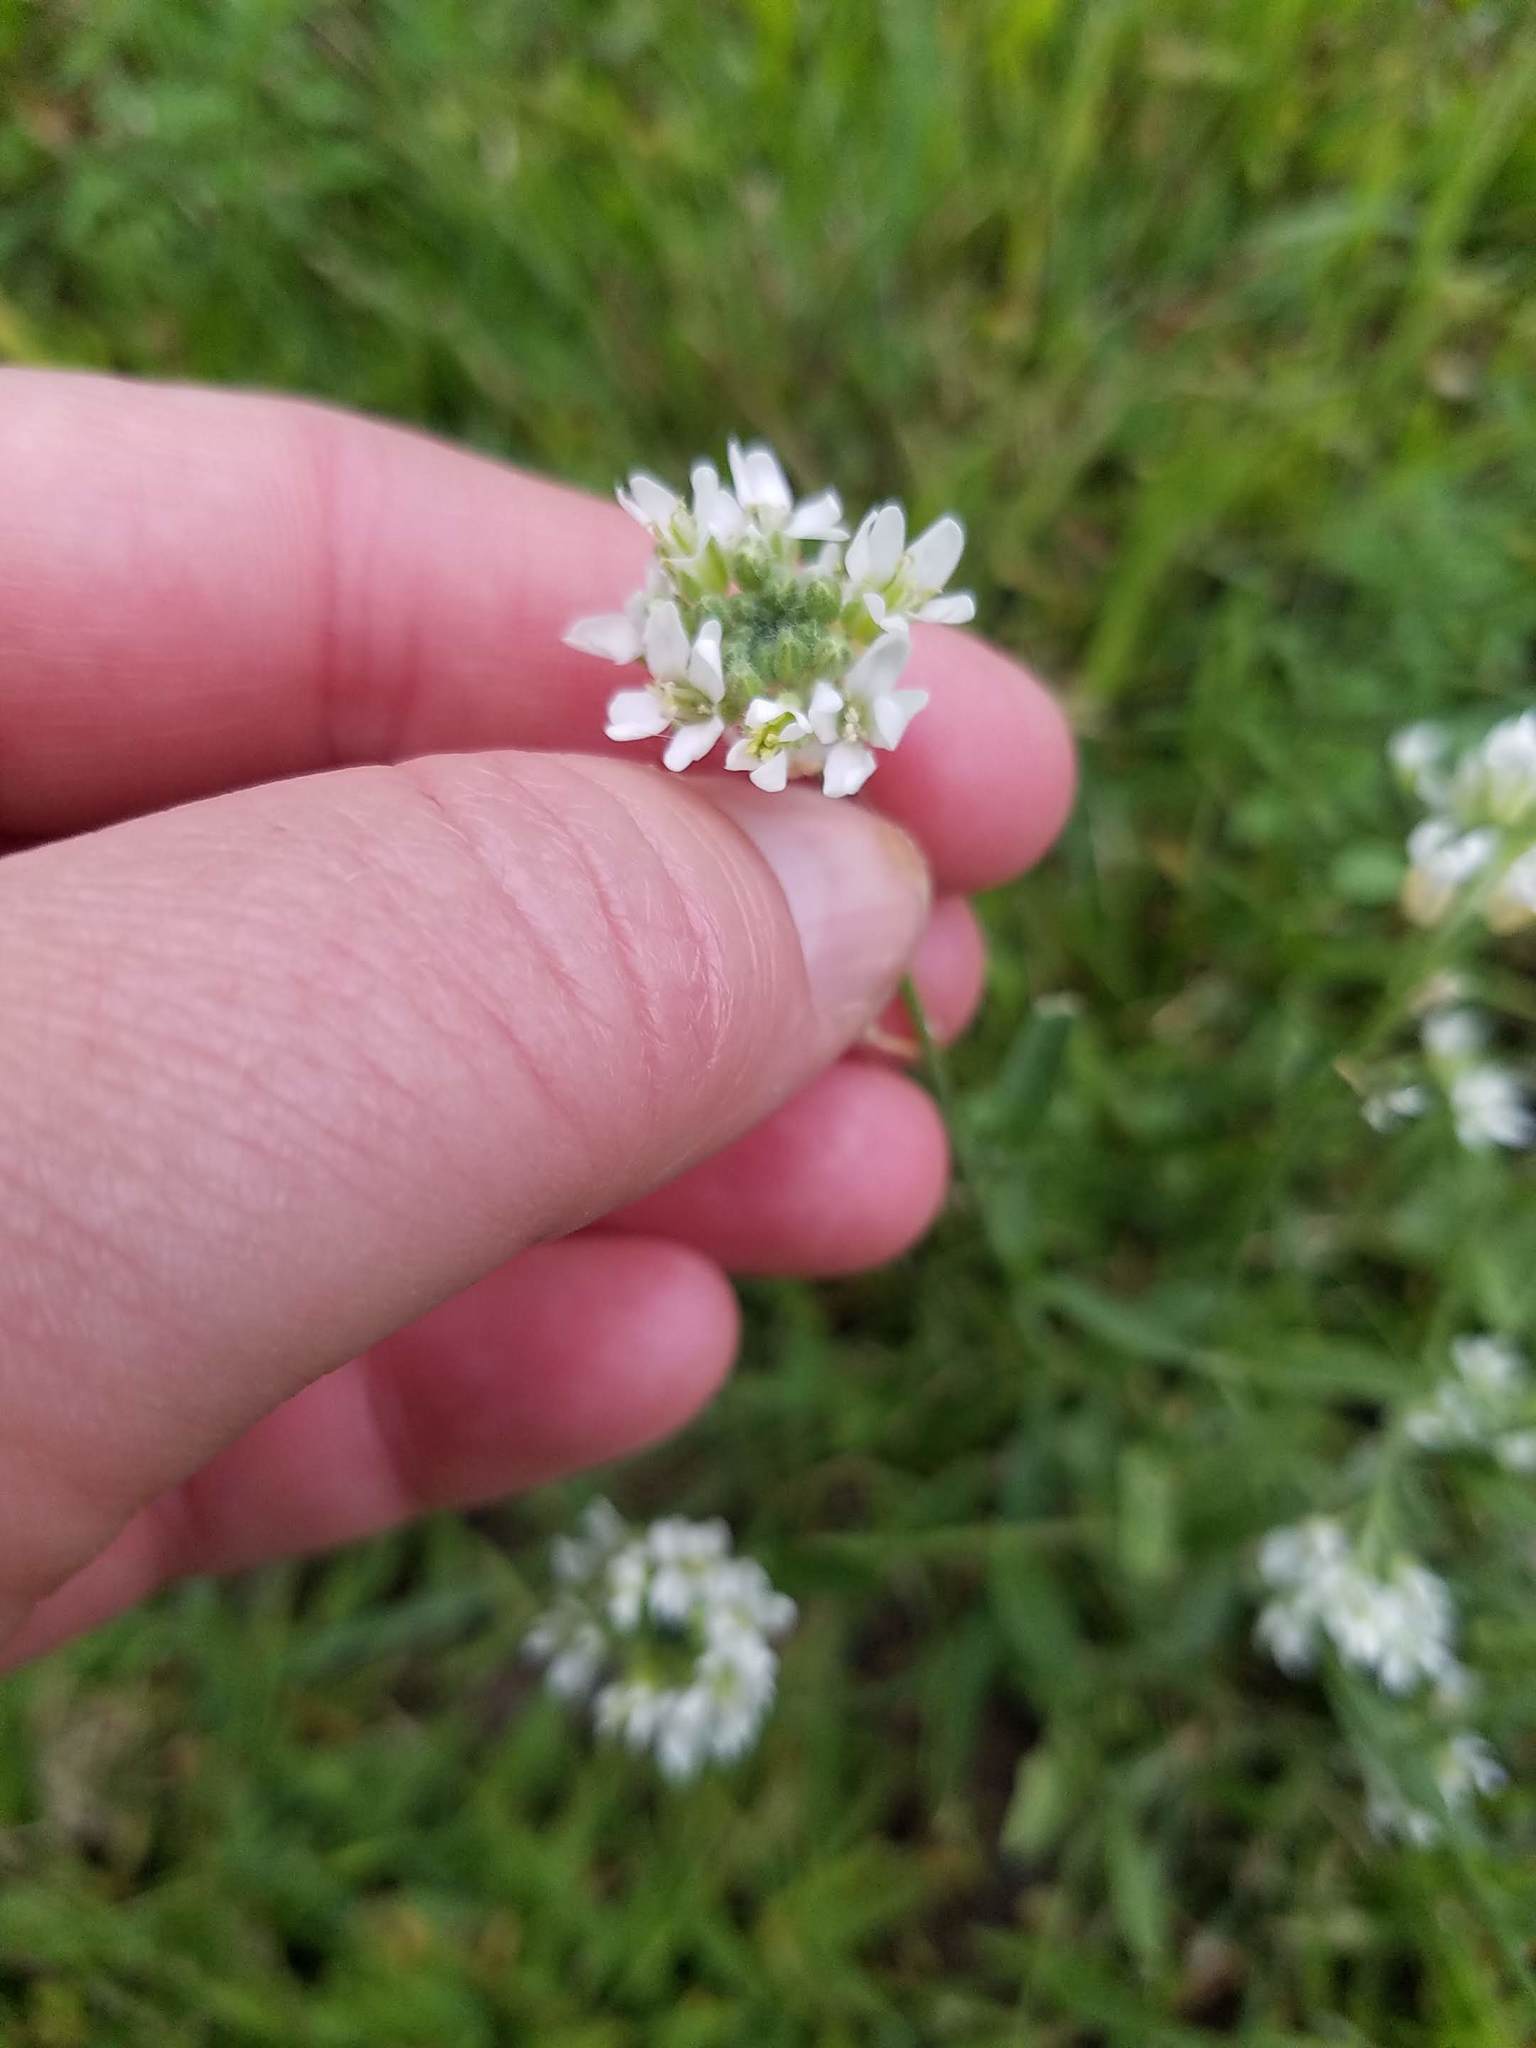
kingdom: Plantae
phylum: Tracheophyta
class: Magnoliopsida
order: Brassicales
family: Brassicaceae
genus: Berteroa
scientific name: Berteroa incana
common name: Hoary alison
